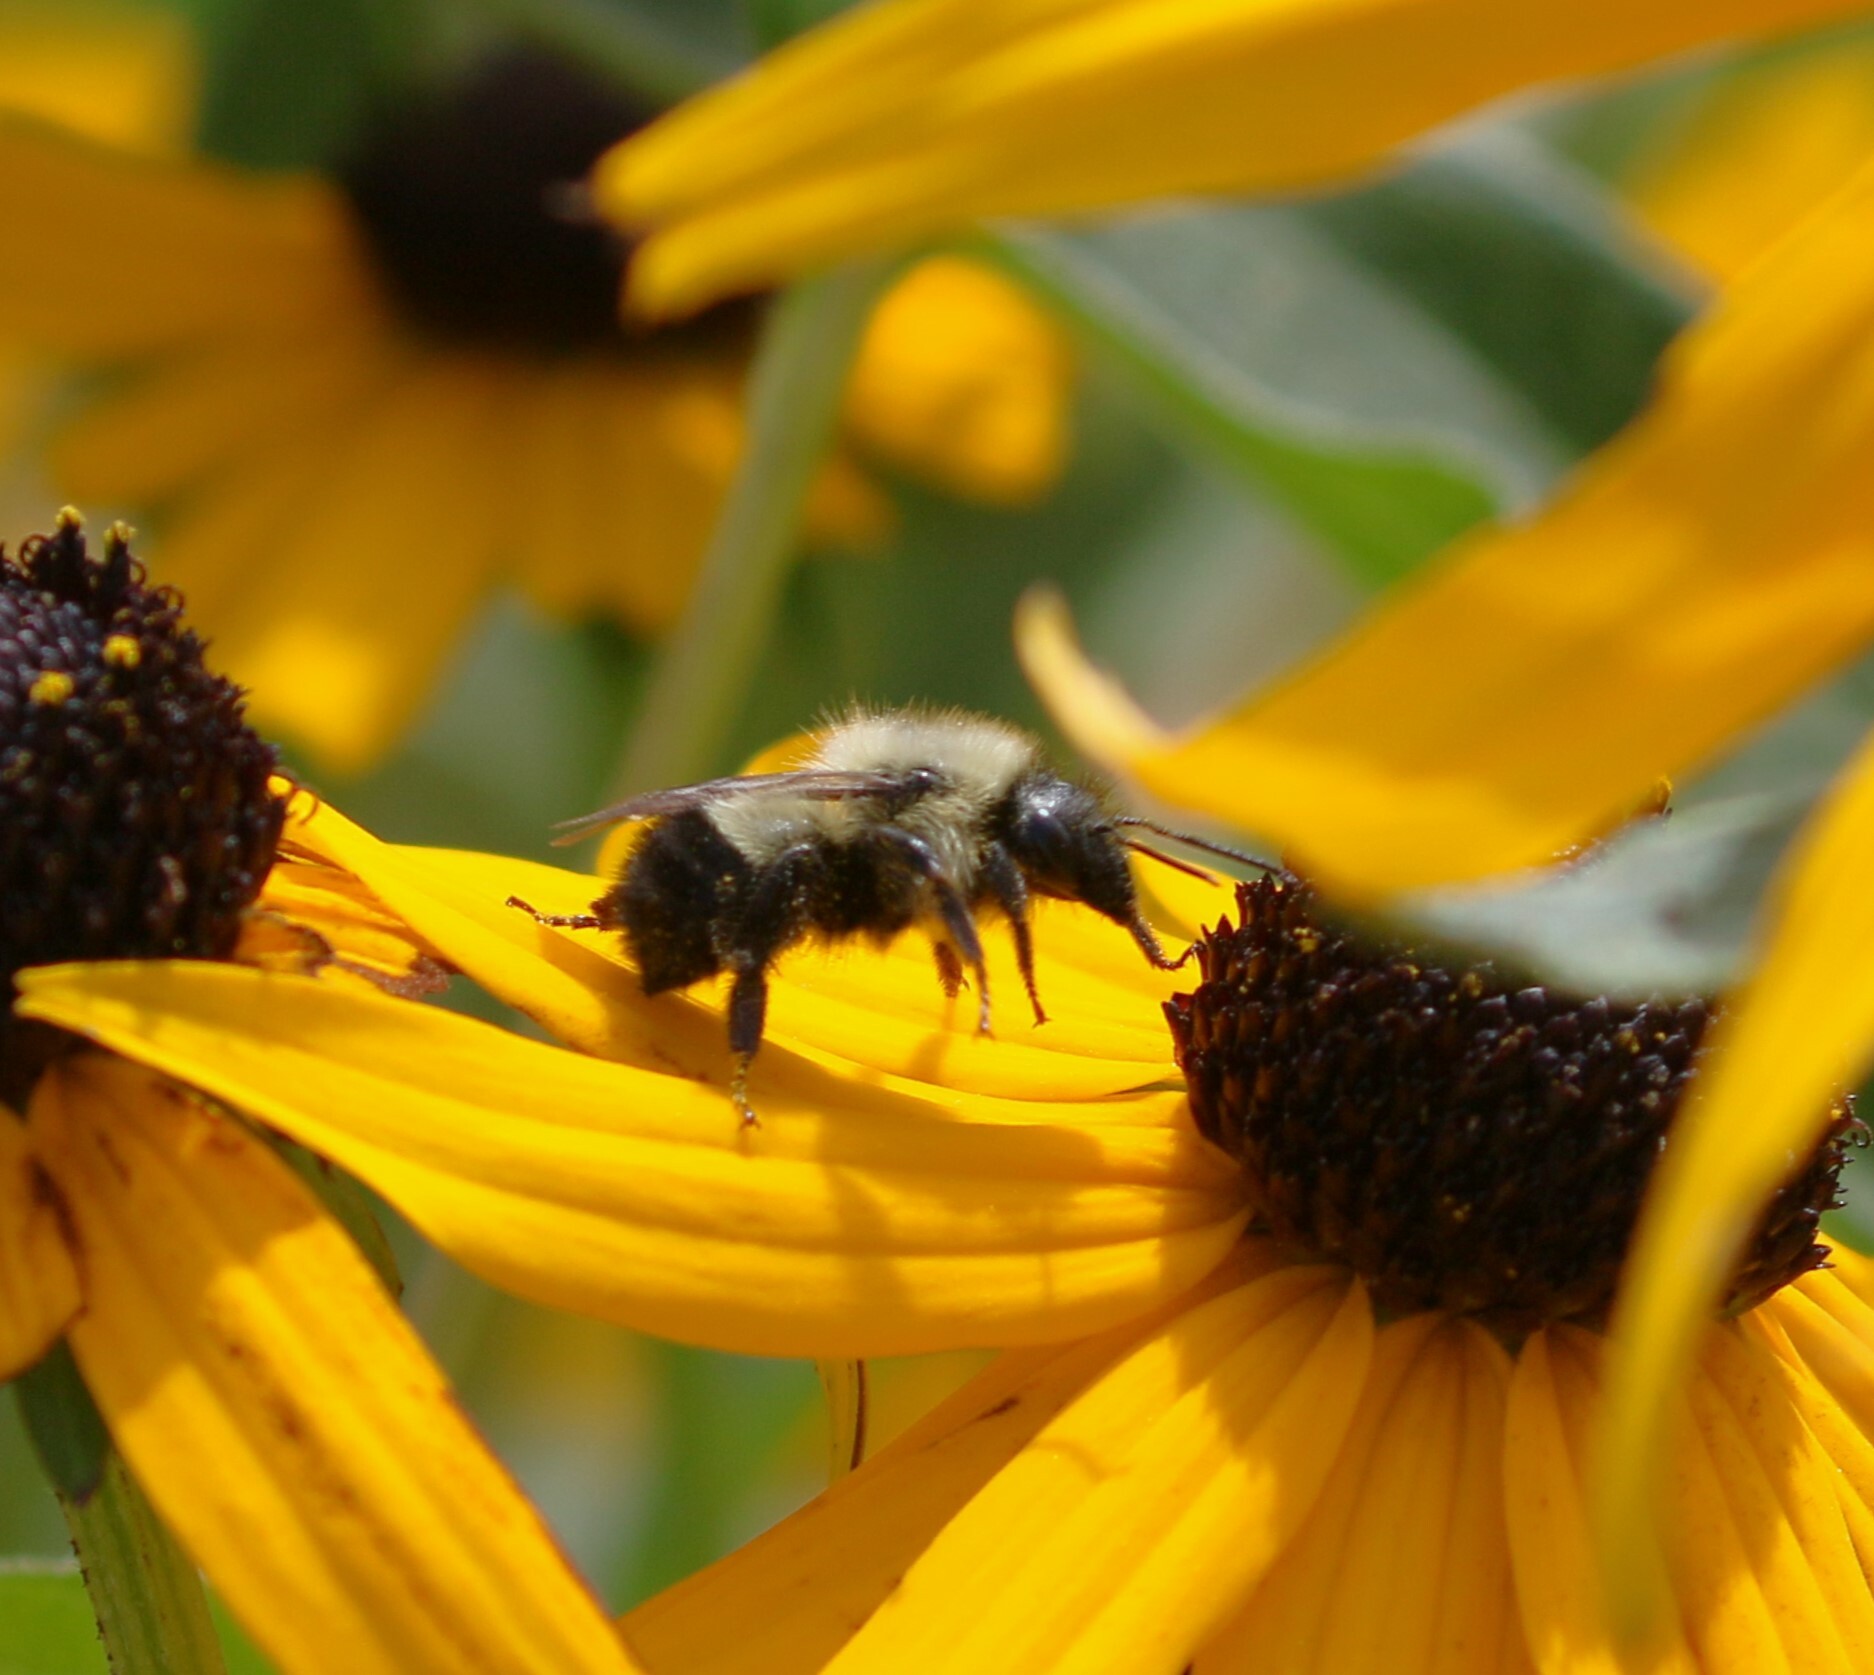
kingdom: Animalia
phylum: Arthropoda
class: Insecta
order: Hymenoptera
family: Apidae
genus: Bombus
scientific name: Bombus vagans
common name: Half-black bumble bee
